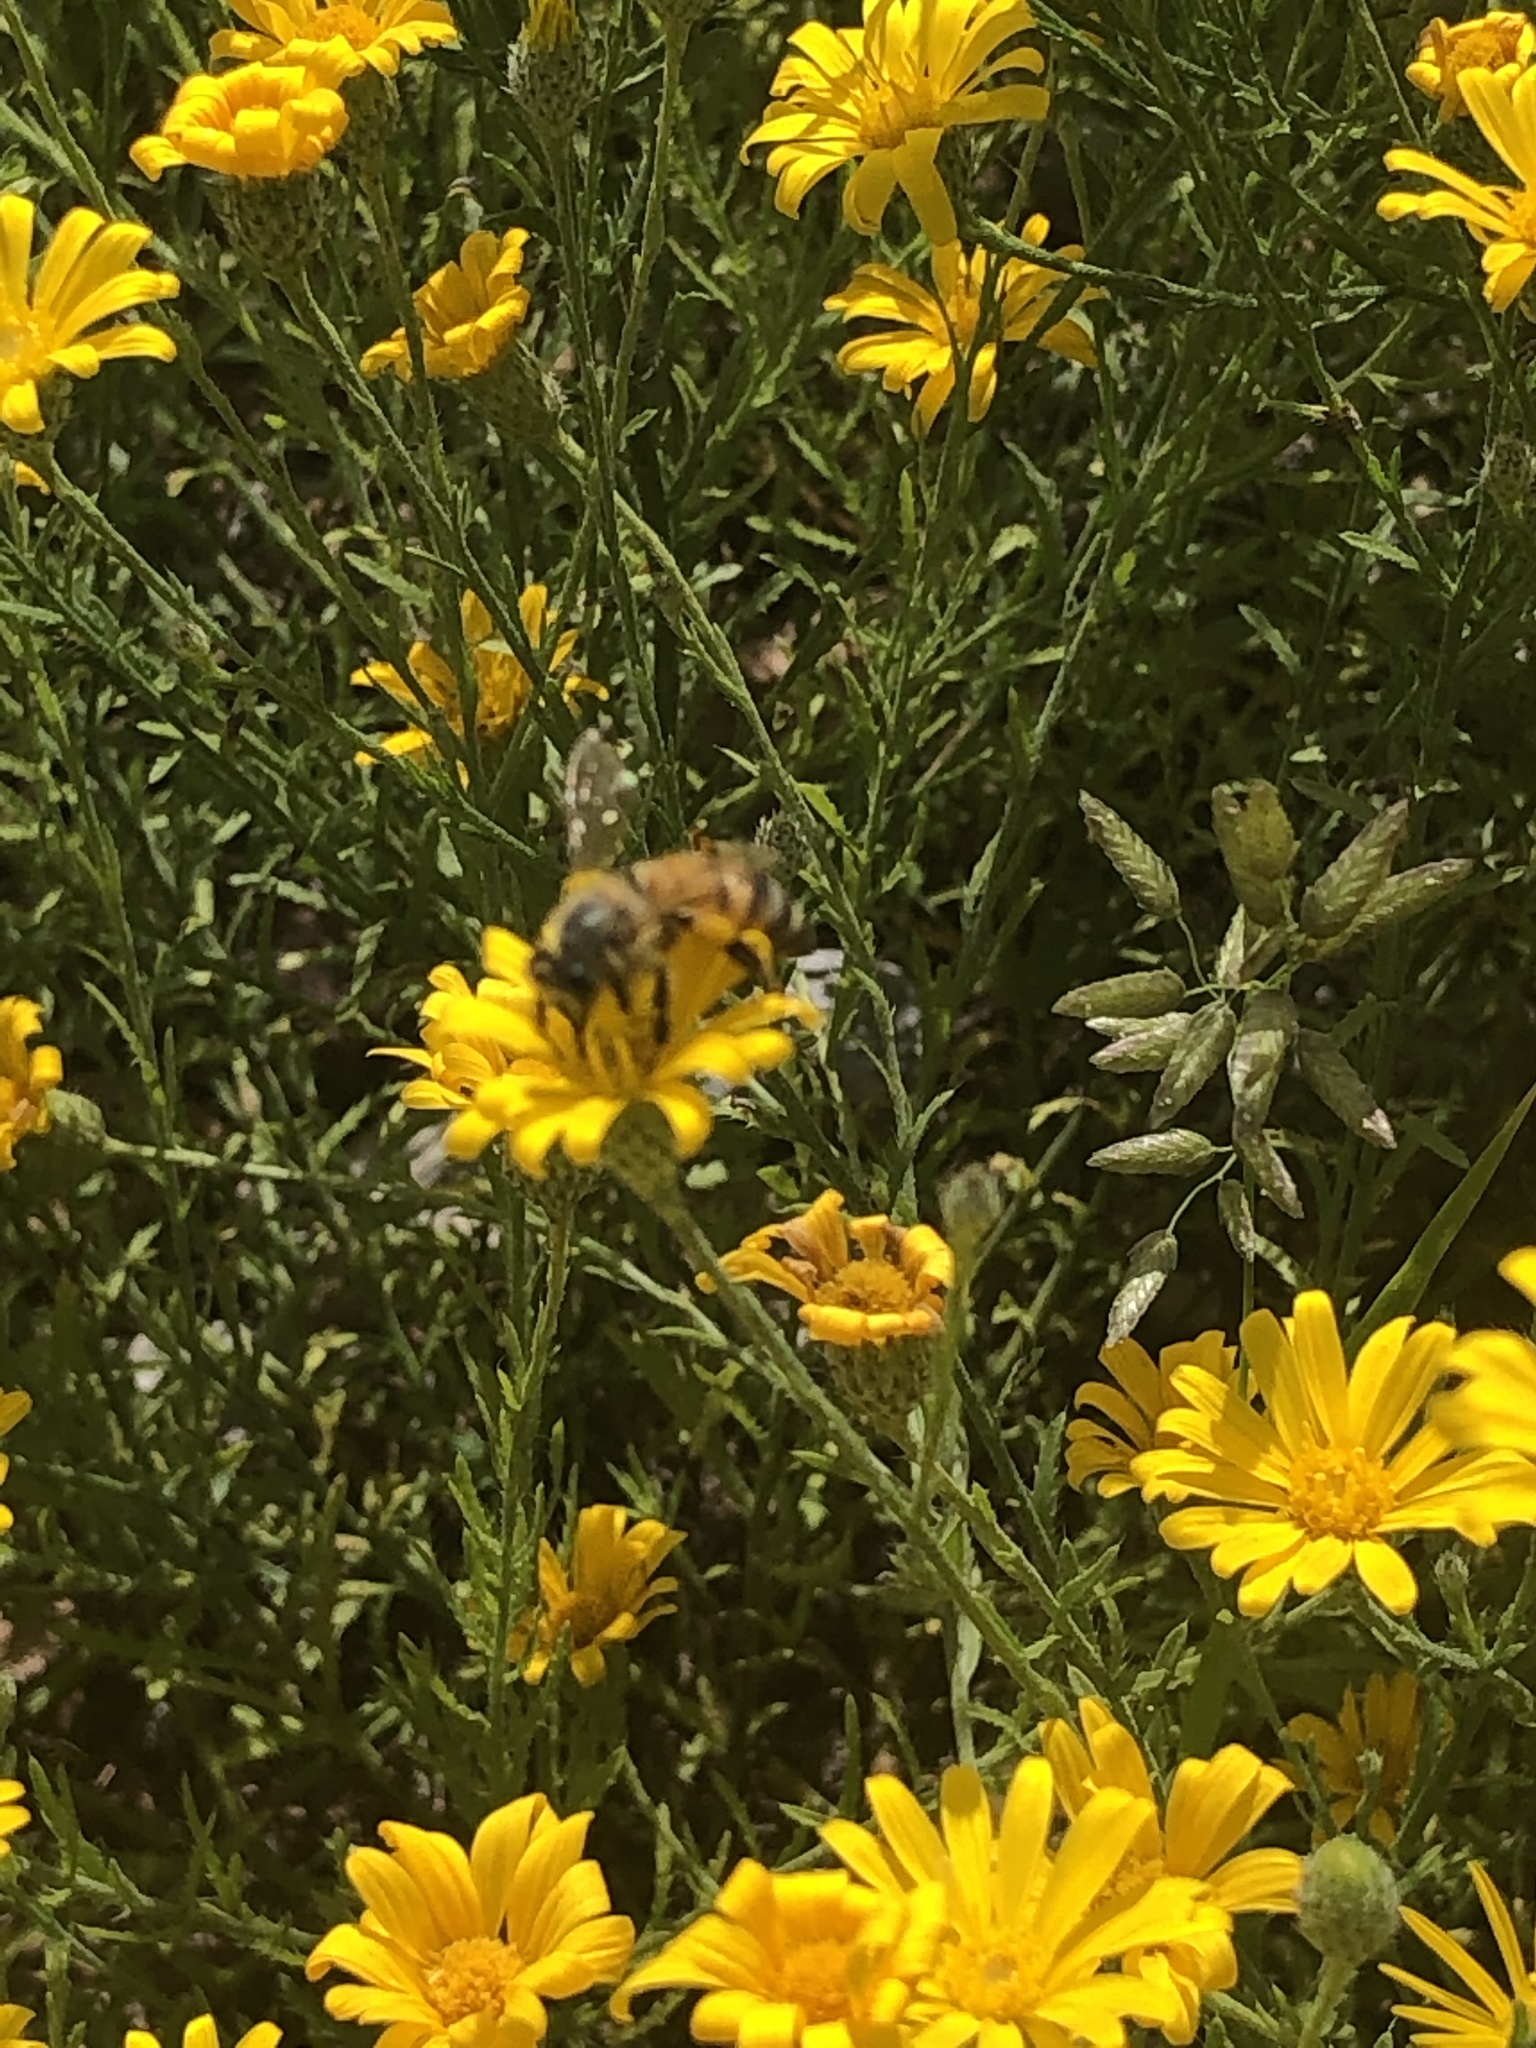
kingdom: Animalia
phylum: Arthropoda
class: Insecta
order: Hymenoptera
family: Apidae
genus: Apis
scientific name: Apis mellifera
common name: Honey bee
